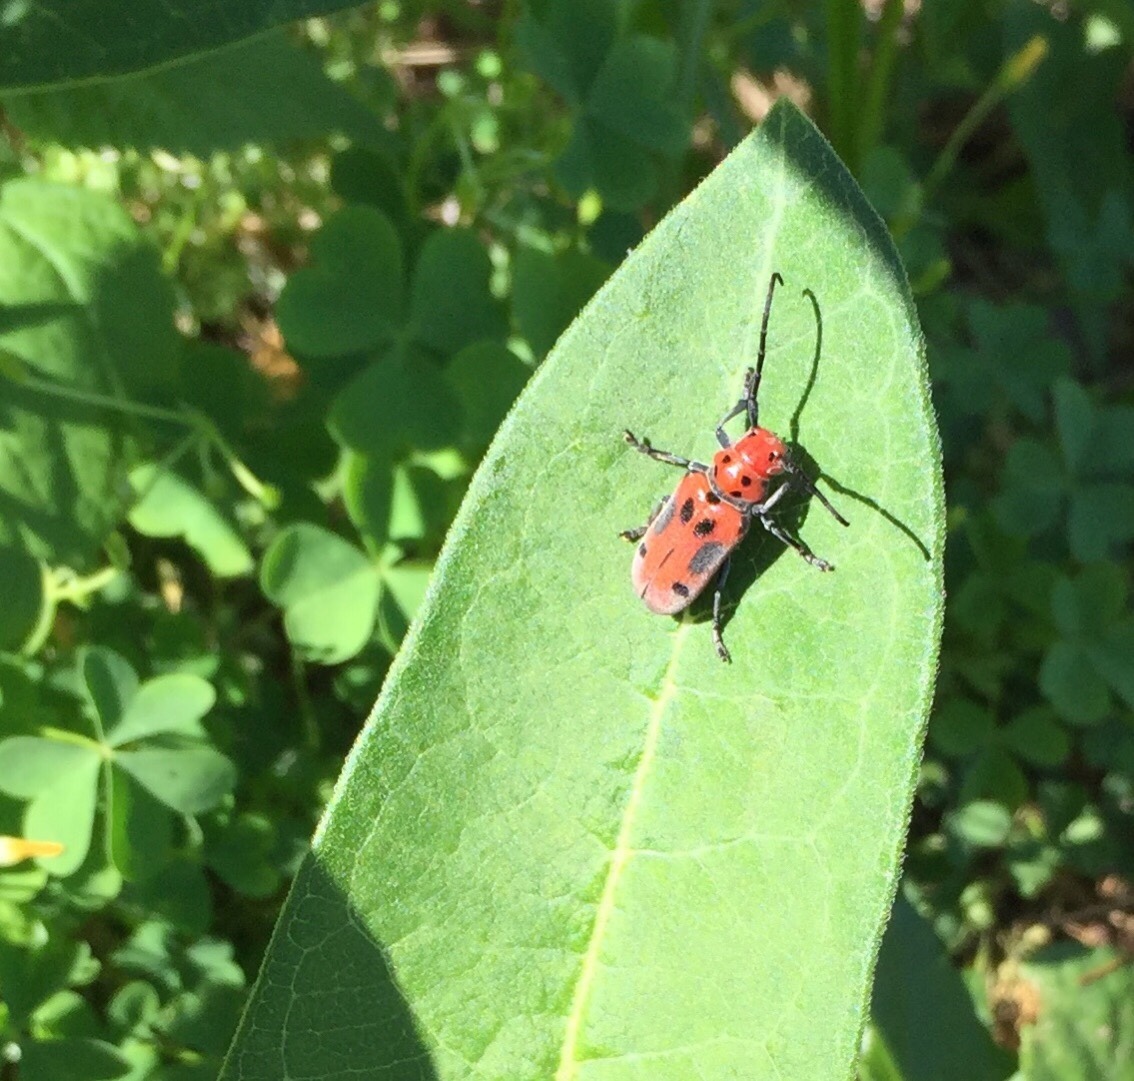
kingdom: Animalia
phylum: Arthropoda
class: Insecta
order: Coleoptera
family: Cerambycidae
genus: Tetraopes
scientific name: Tetraopes tetrophthalmus
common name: Red milkweed beetle
